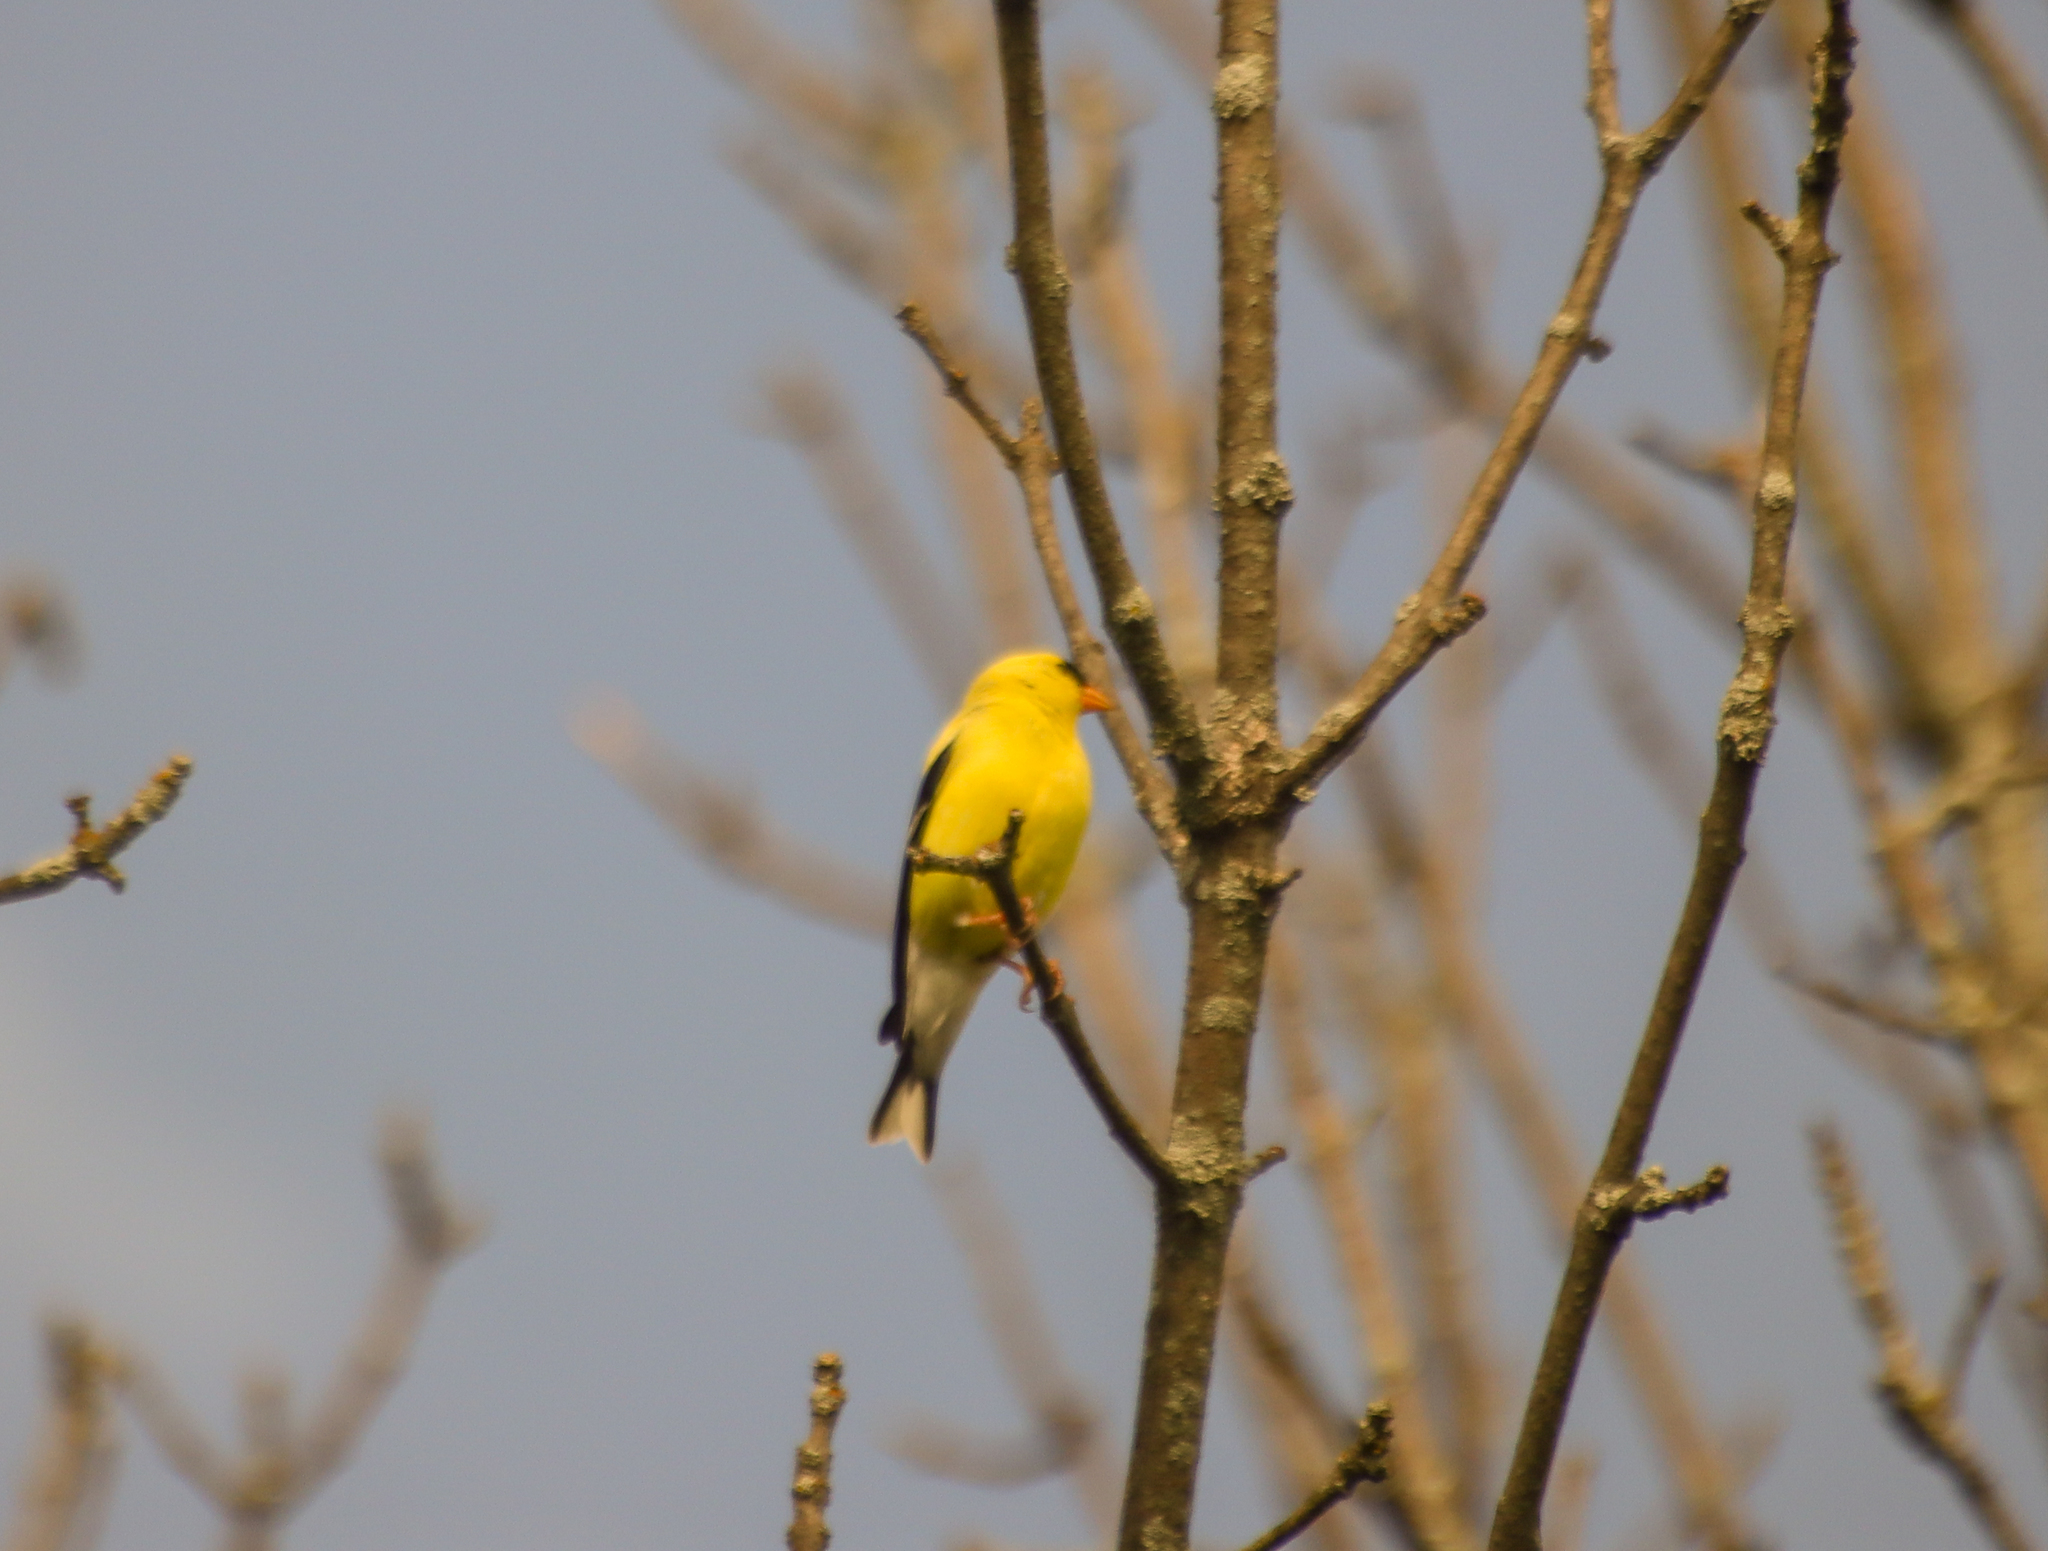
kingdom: Animalia
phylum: Chordata
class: Aves
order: Passeriformes
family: Fringillidae
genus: Spinus
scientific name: Spinus tristis
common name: American goldfinch
